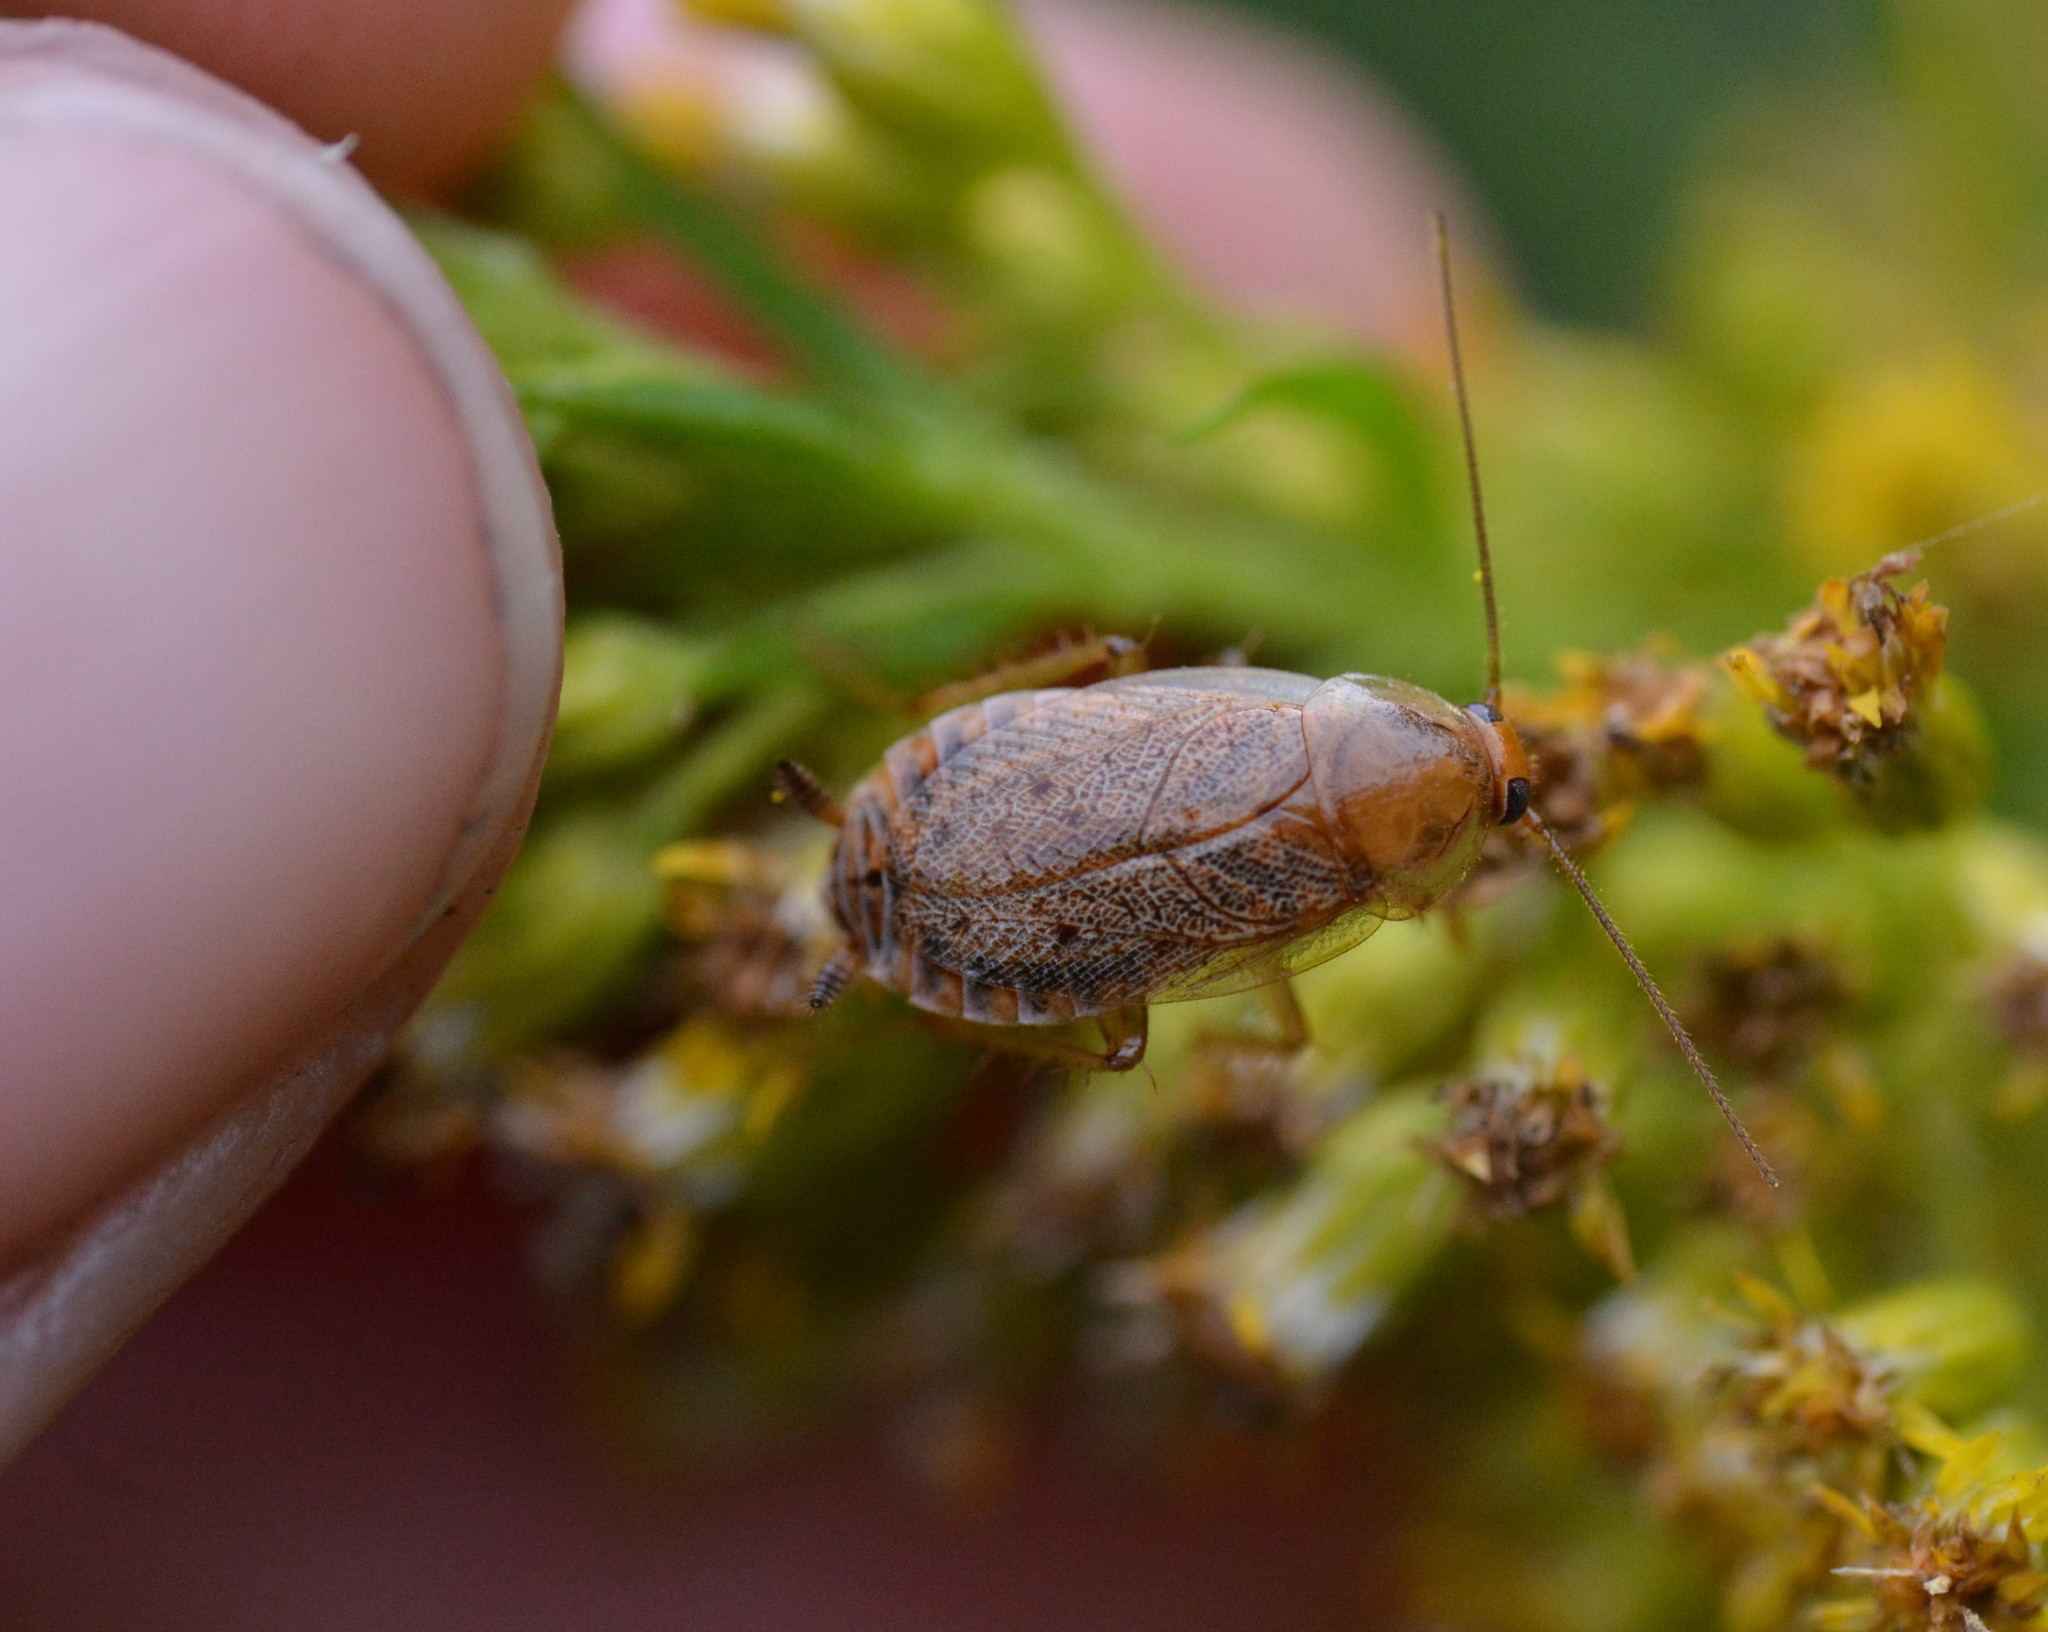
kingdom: Animalia
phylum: Arthropoda
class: Insecta
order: Blattodea
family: Ectobiidae
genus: Ectobius
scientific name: Ectobius lapponicus
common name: Dusky cockroach
